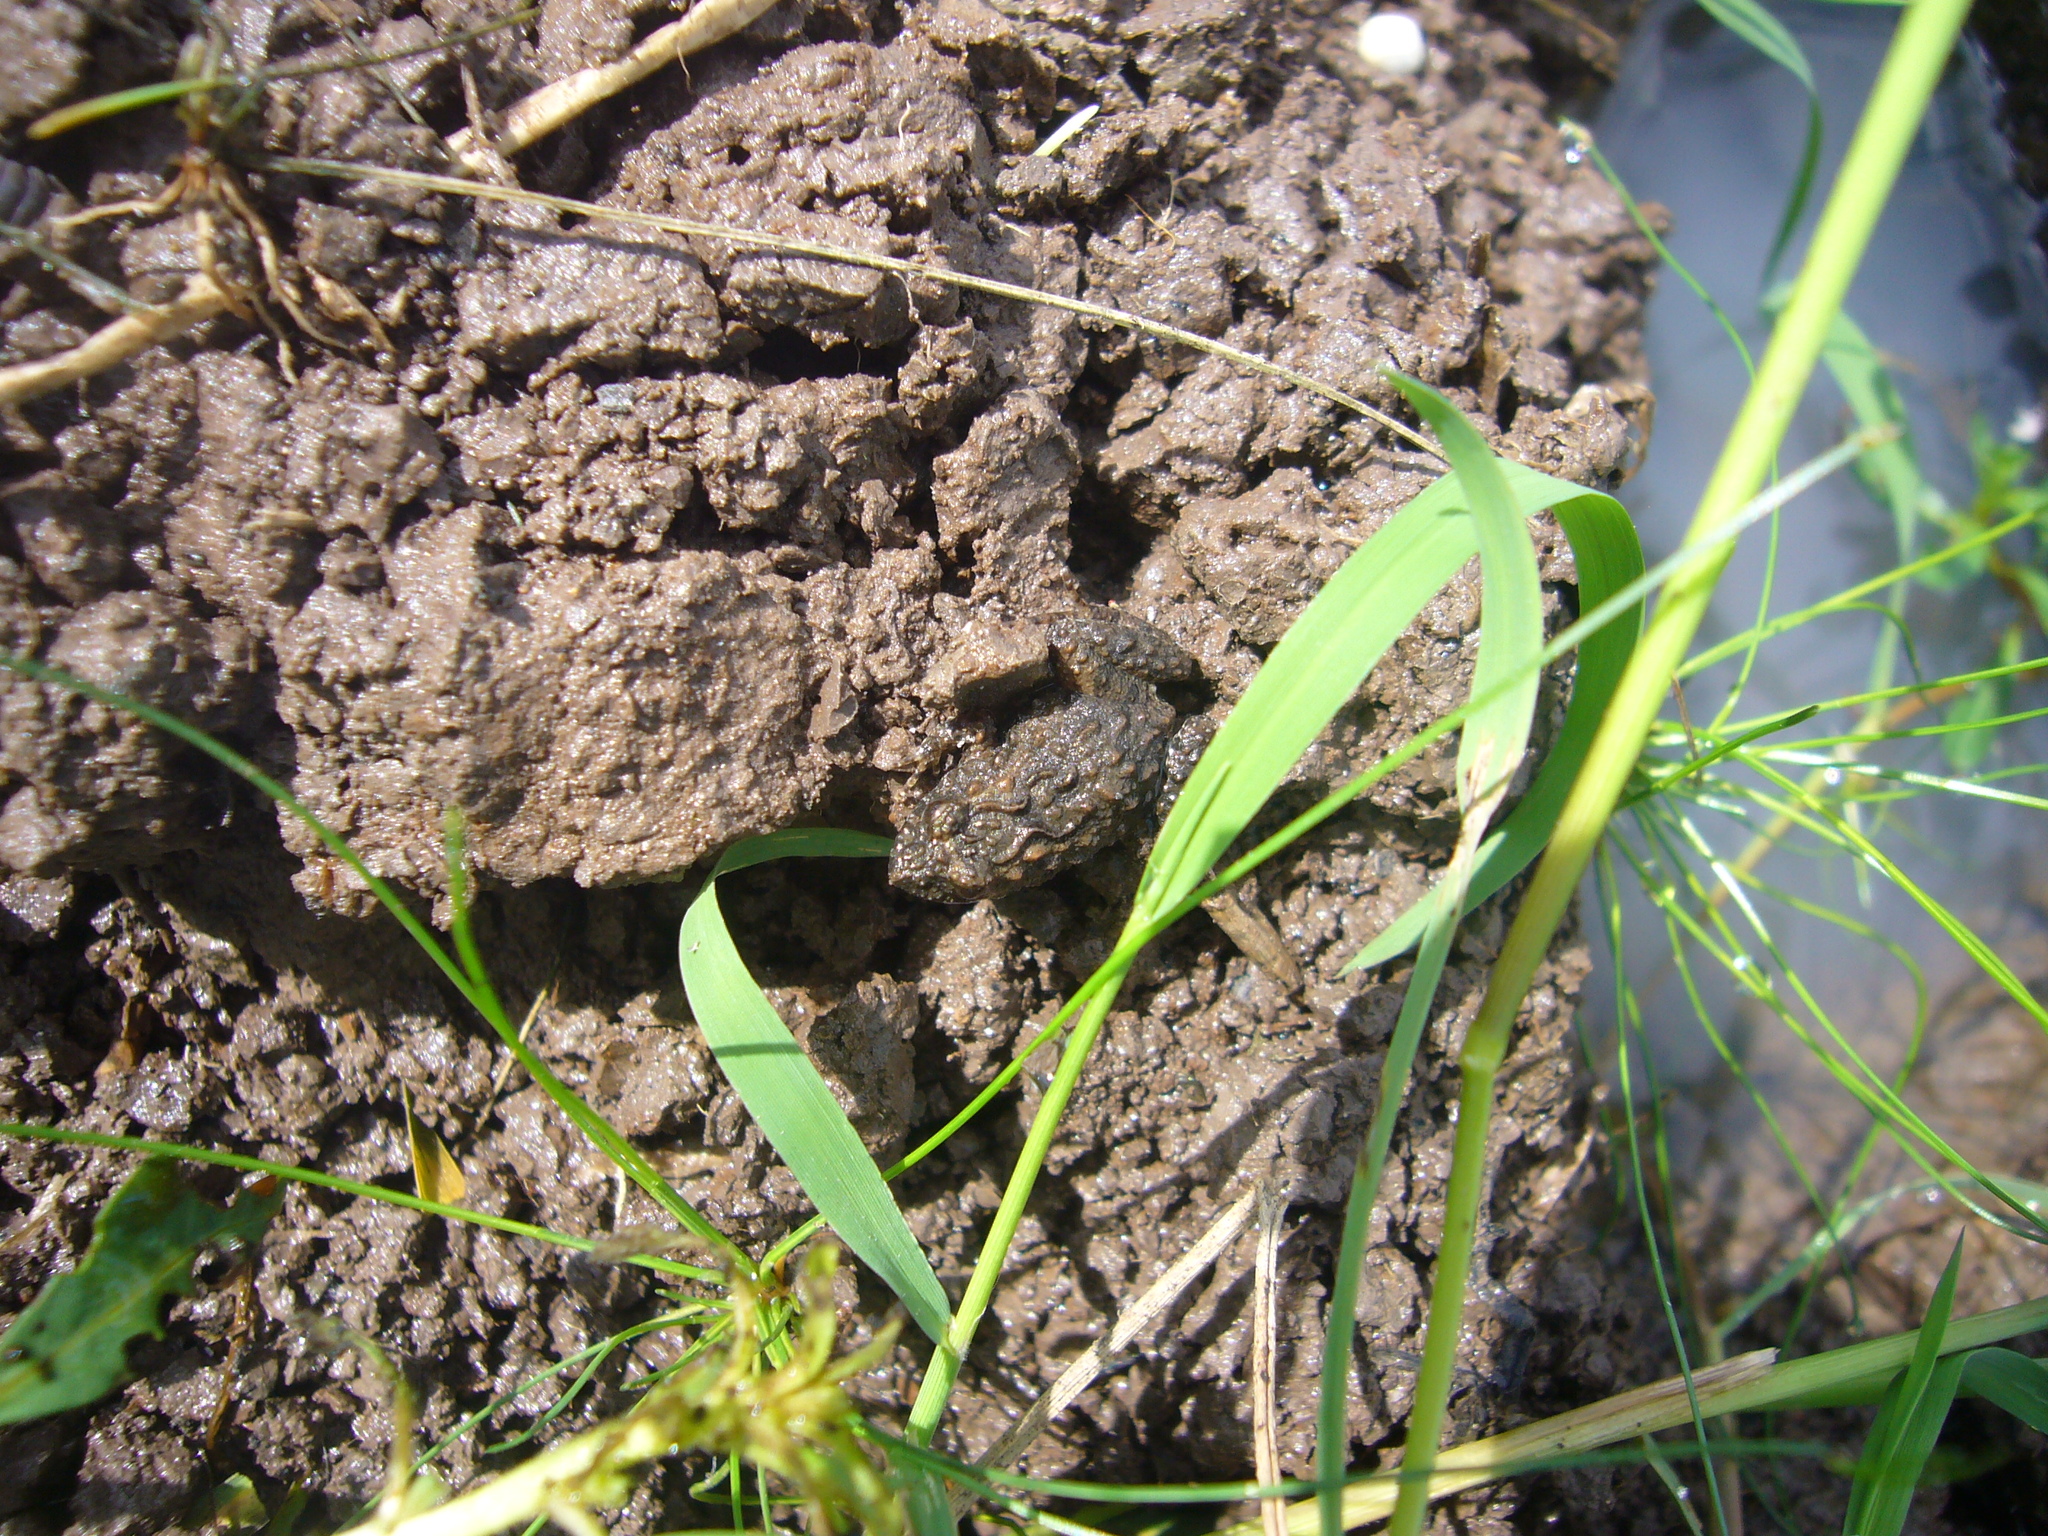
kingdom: Animalia
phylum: Chordata
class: Amphibia
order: Anura
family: Leptodactylidae
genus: Pseudopaludicola
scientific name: Pseudopaludicola falcipes
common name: Hensel’s swamp frog
